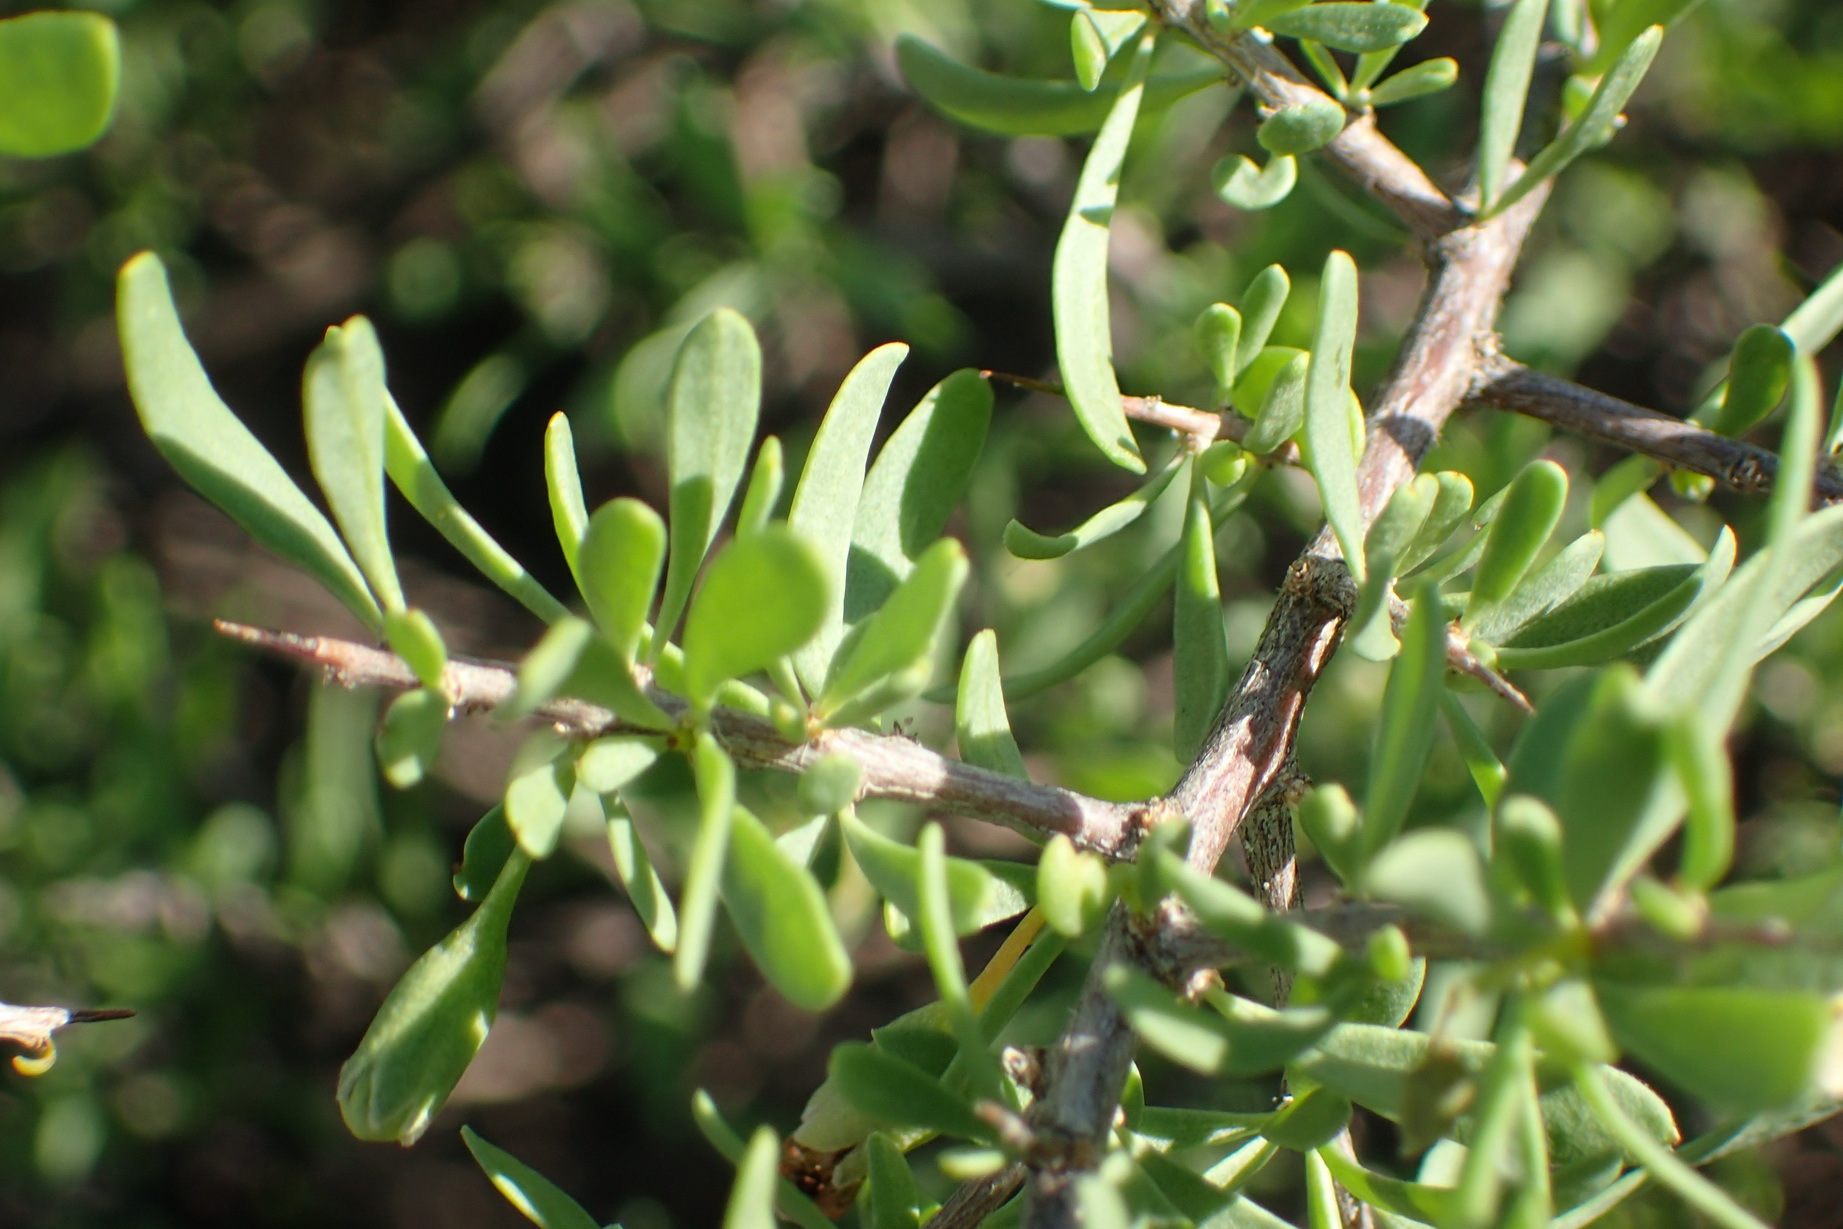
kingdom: Plantae
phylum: Tracheophyta
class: Magnoliopsida
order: Solanales
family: Solanaceae
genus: Lycium
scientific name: Lycium pumilum
